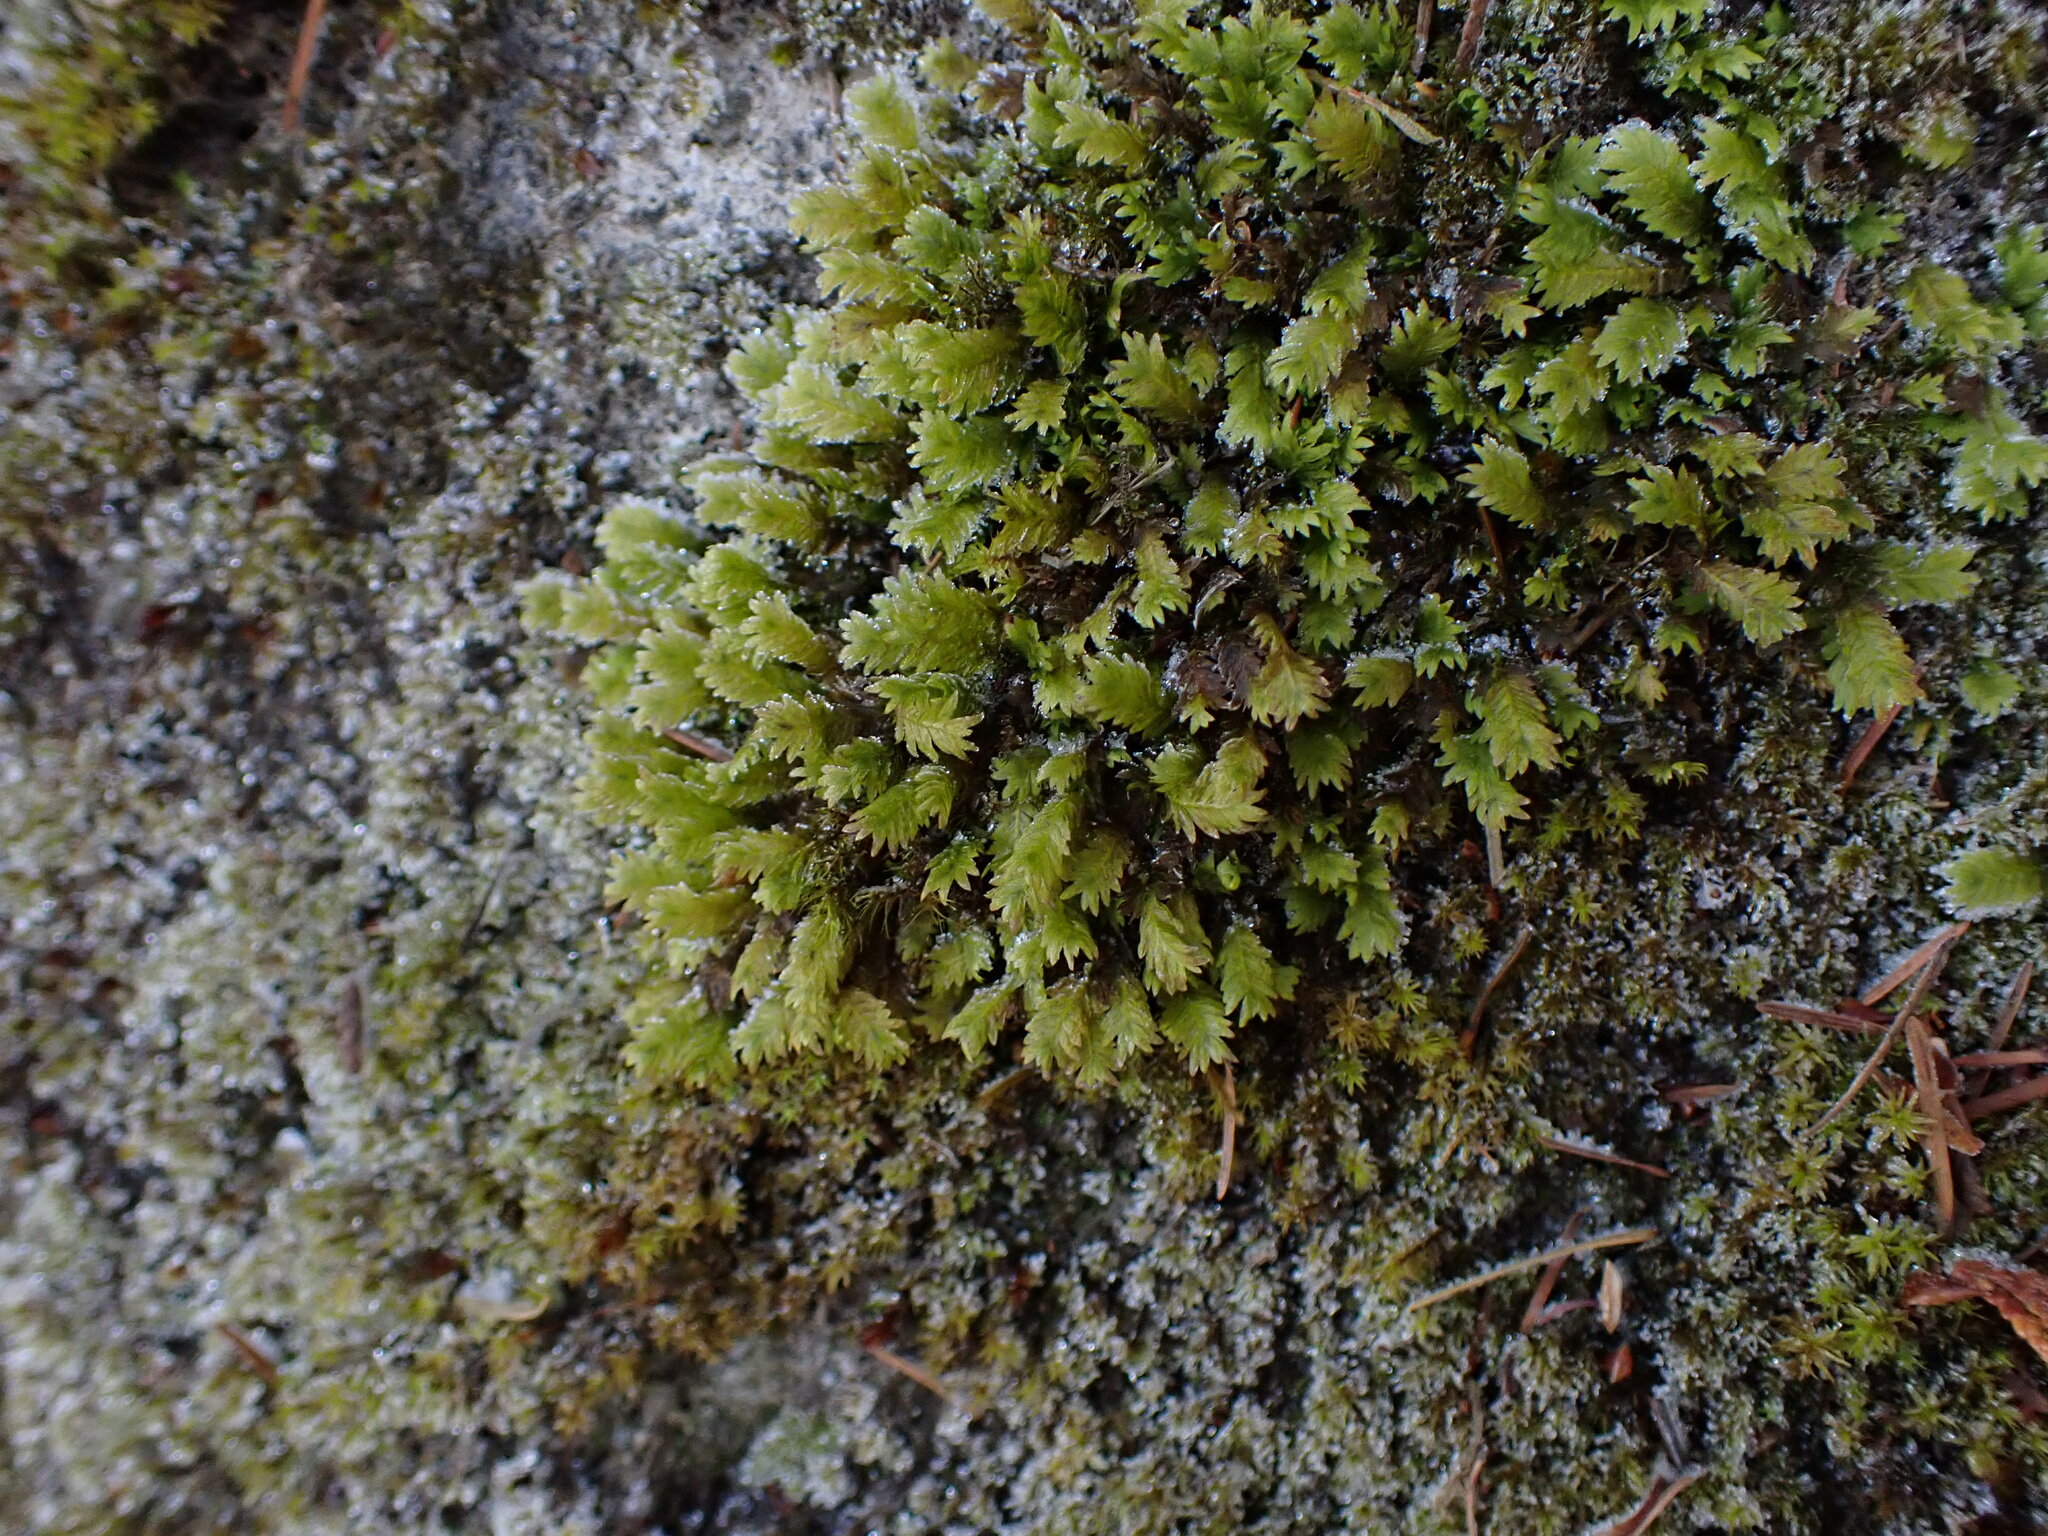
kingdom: Plantae
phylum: Bryophyta
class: Bryopsida
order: Dicranales
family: Fissidentaceae
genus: Fissidens
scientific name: Fissidens adianthoides
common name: Maidenhair pocket moss
